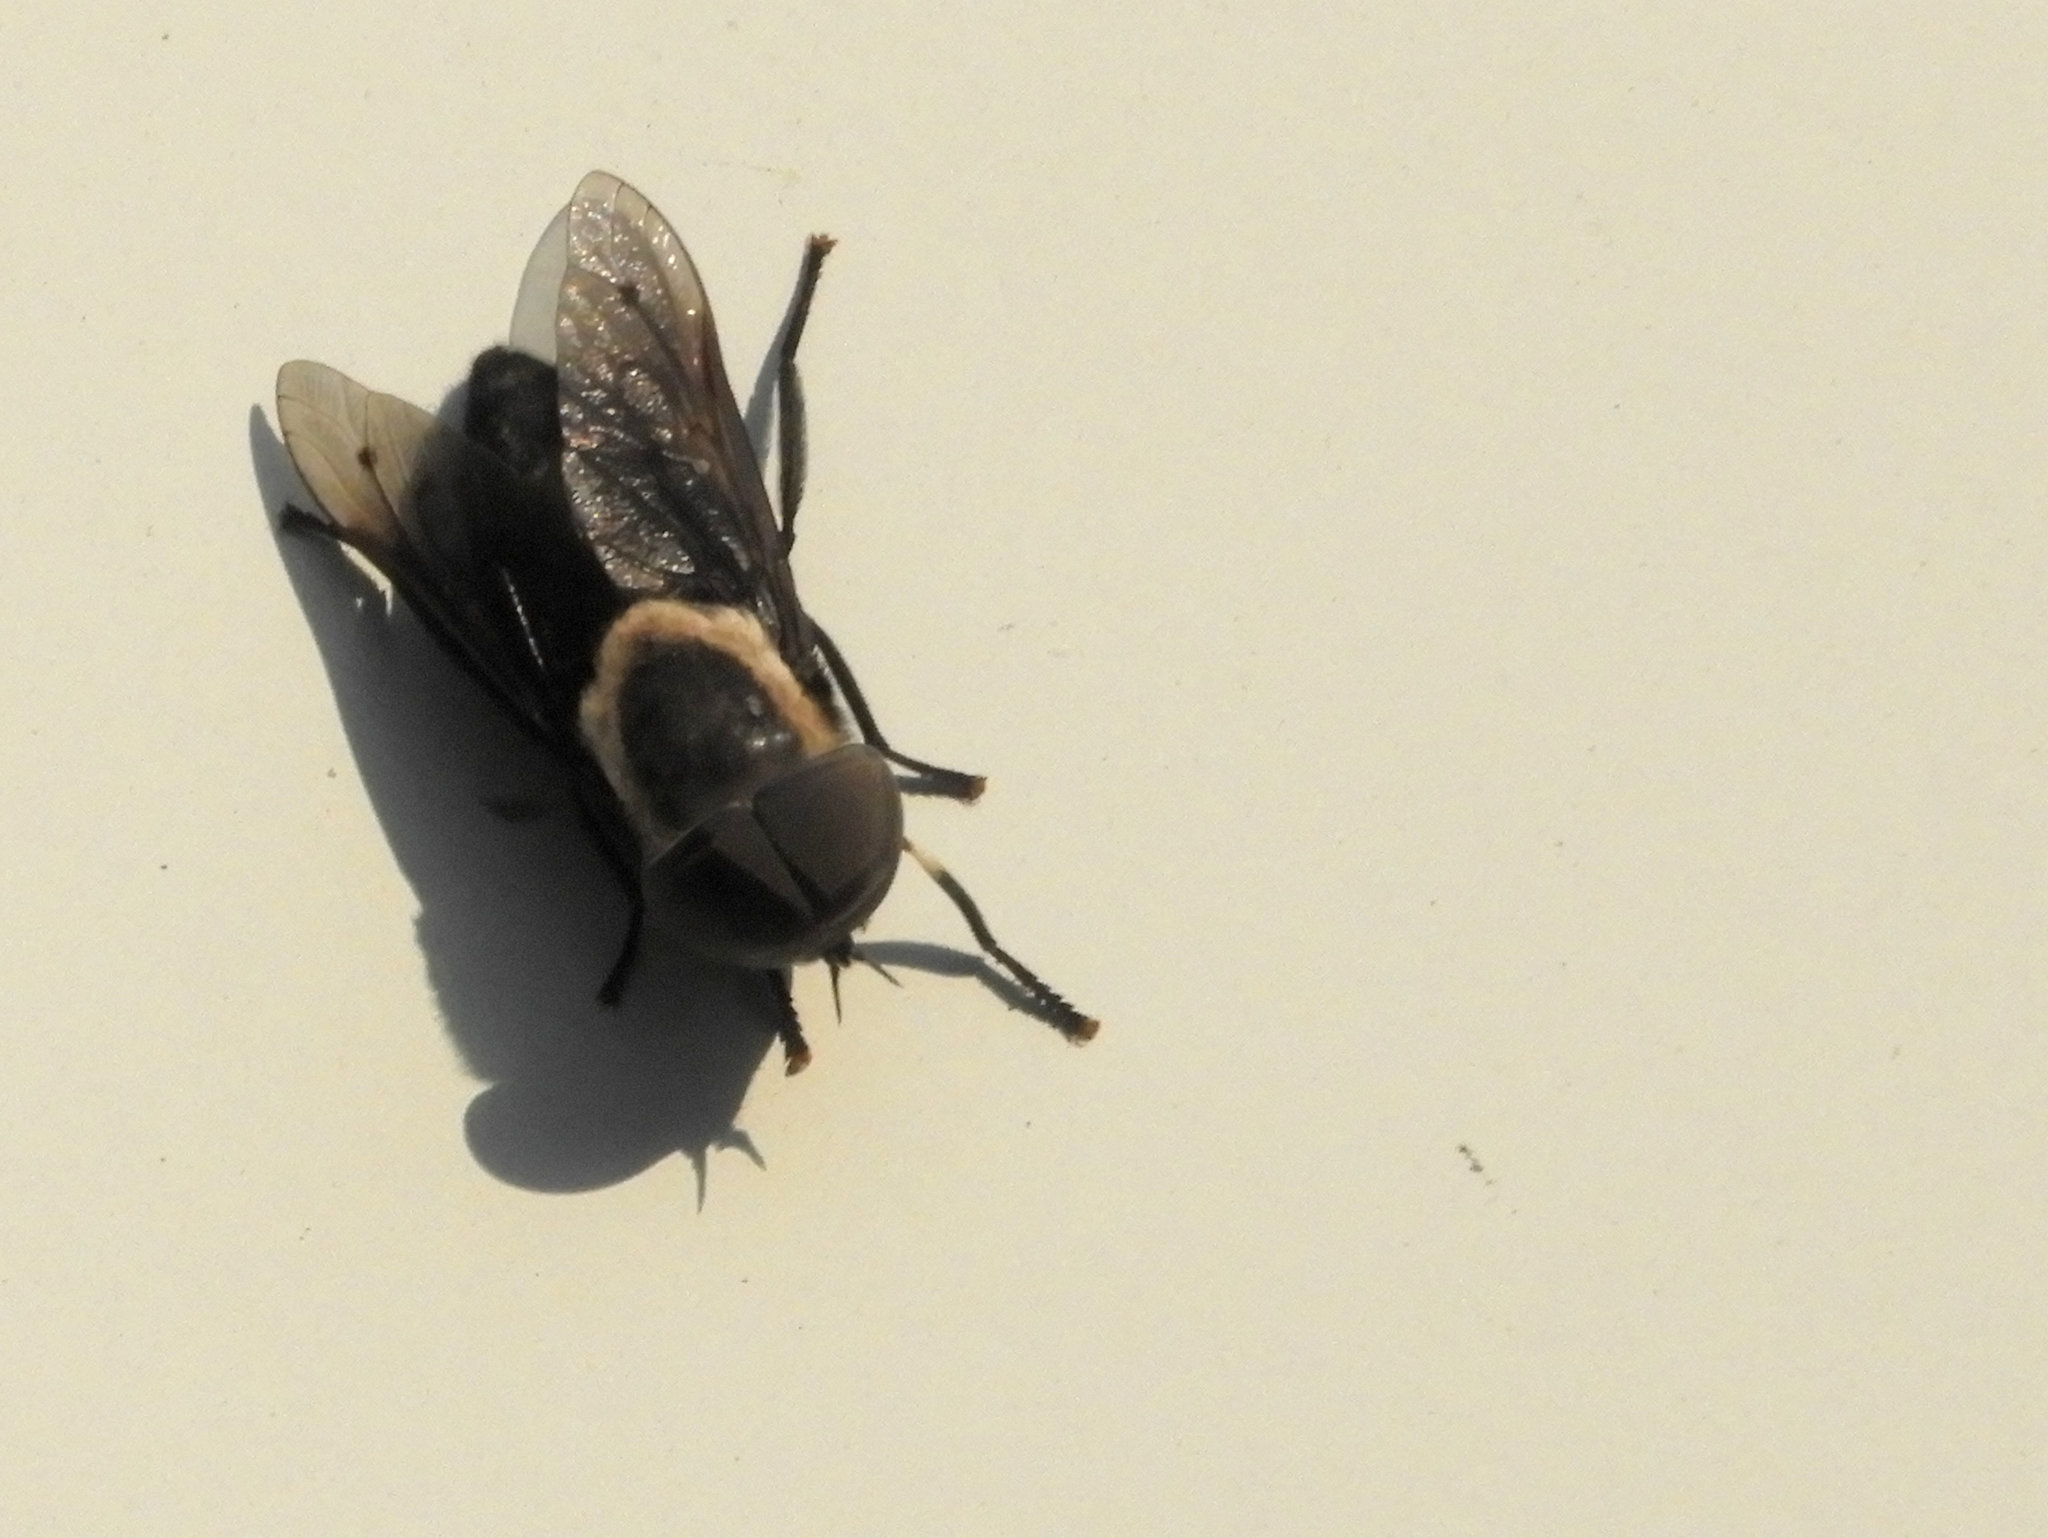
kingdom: Animalia
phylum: Arthropoda
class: Insecta
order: Diptera
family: Tabanidae
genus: Tabanus
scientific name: Tabanus punctifer
